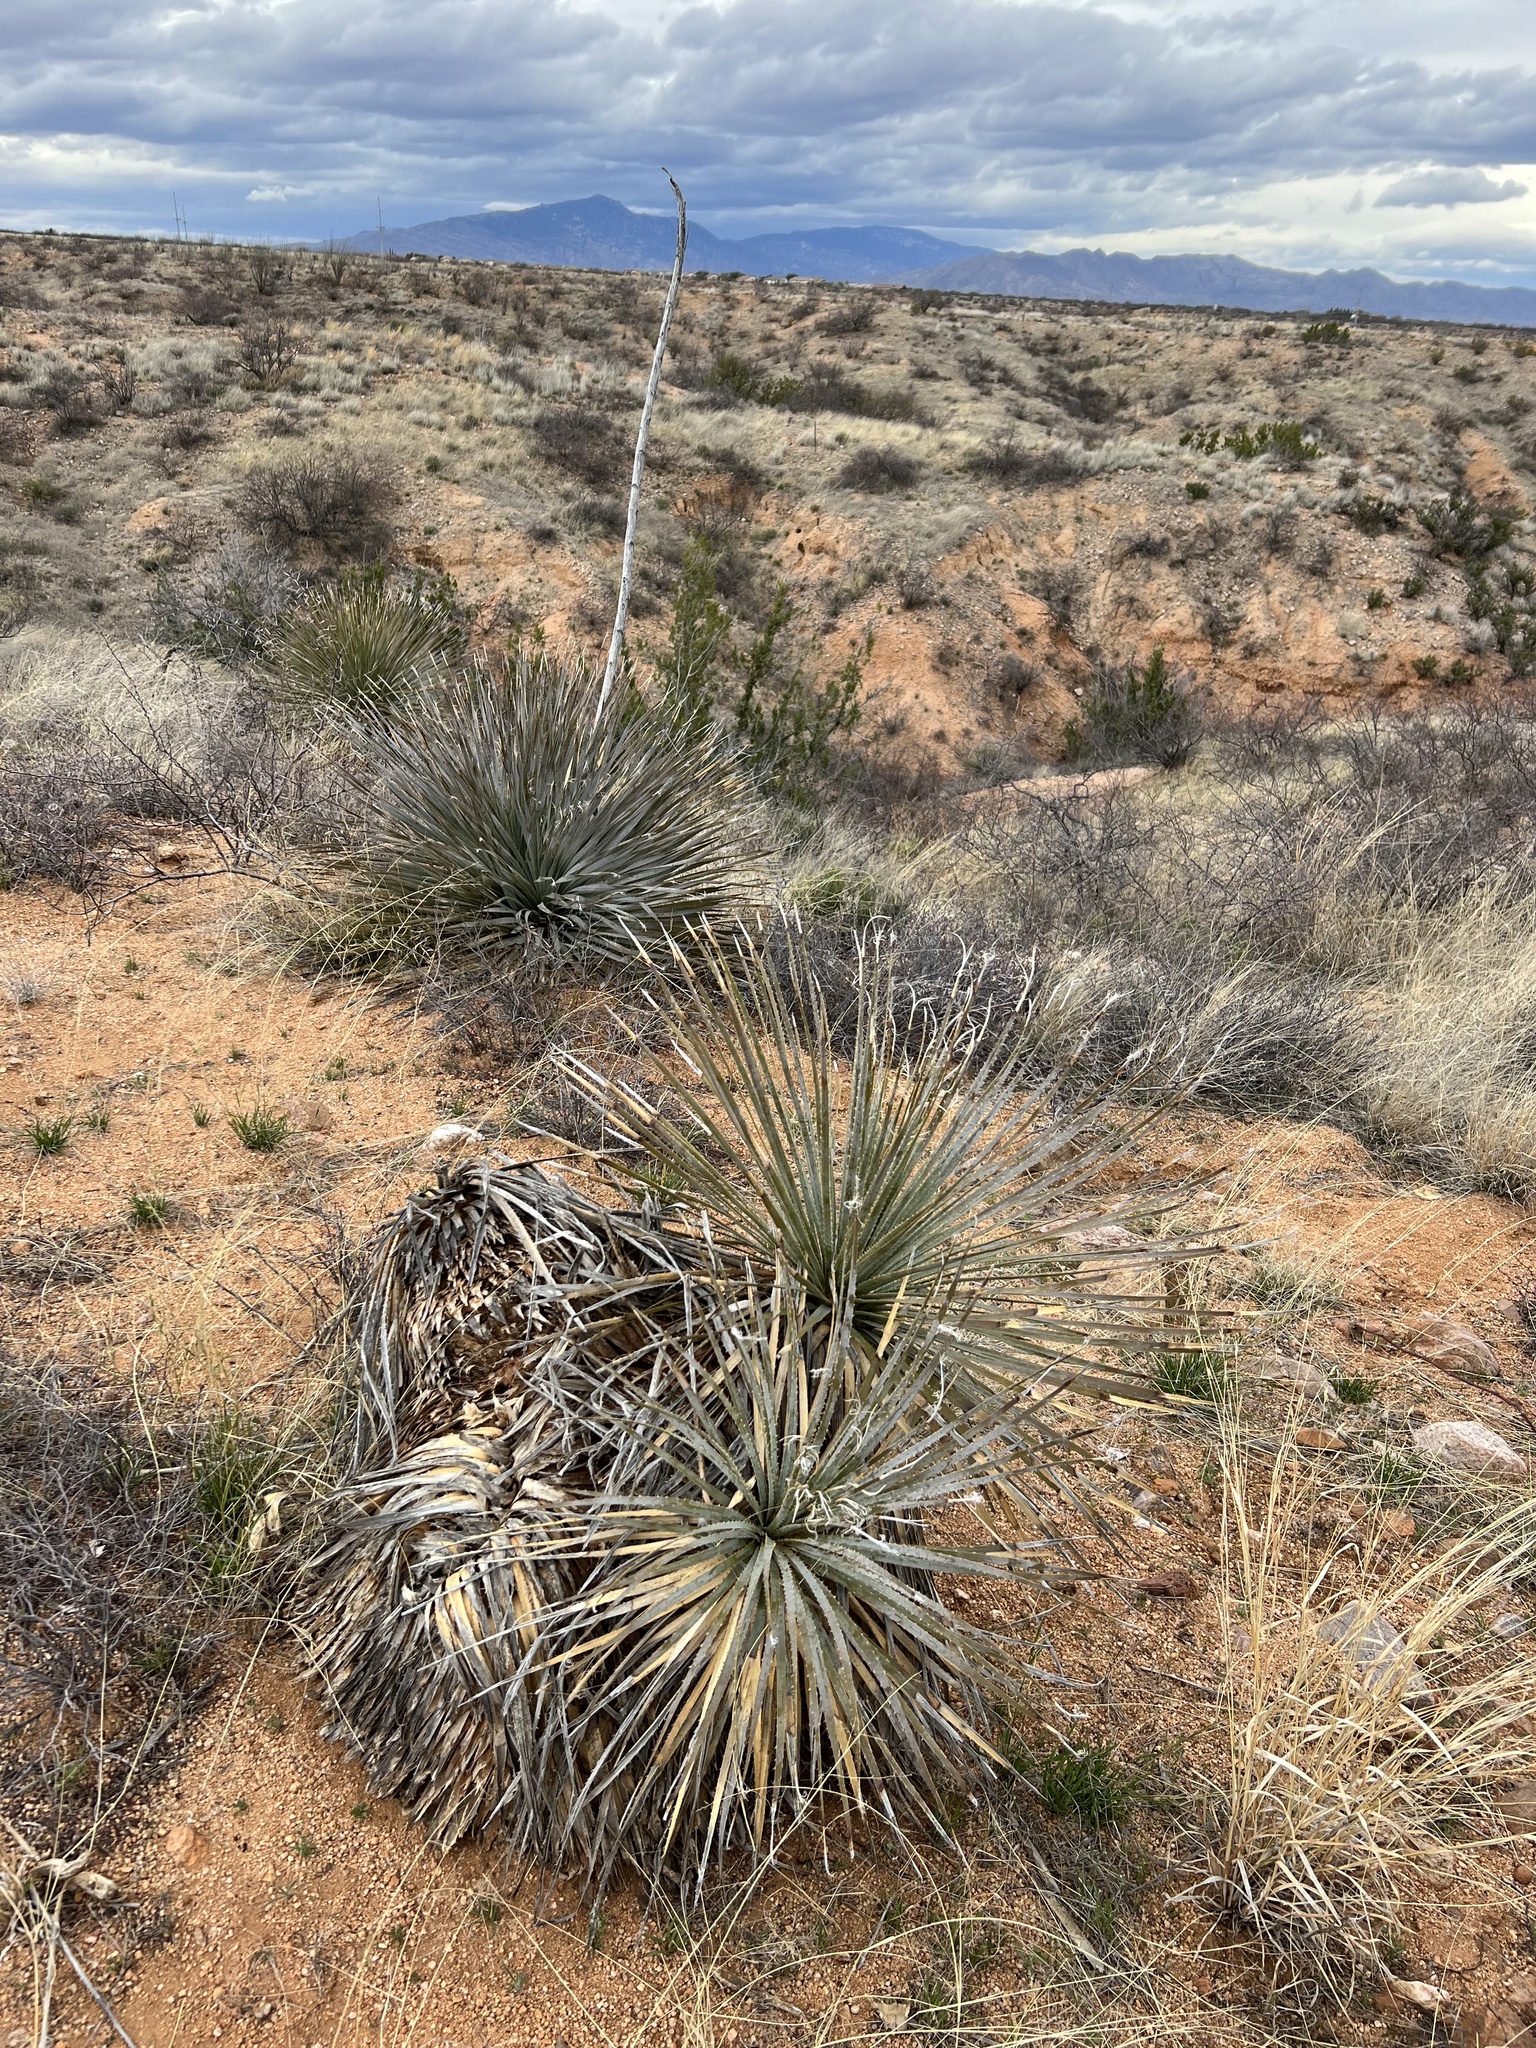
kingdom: Plantae
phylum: Tracheophyta
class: Liliopsida
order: Asparagales
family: Asparagaceae
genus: Dasylirion
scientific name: Dasylirion wheeleri
